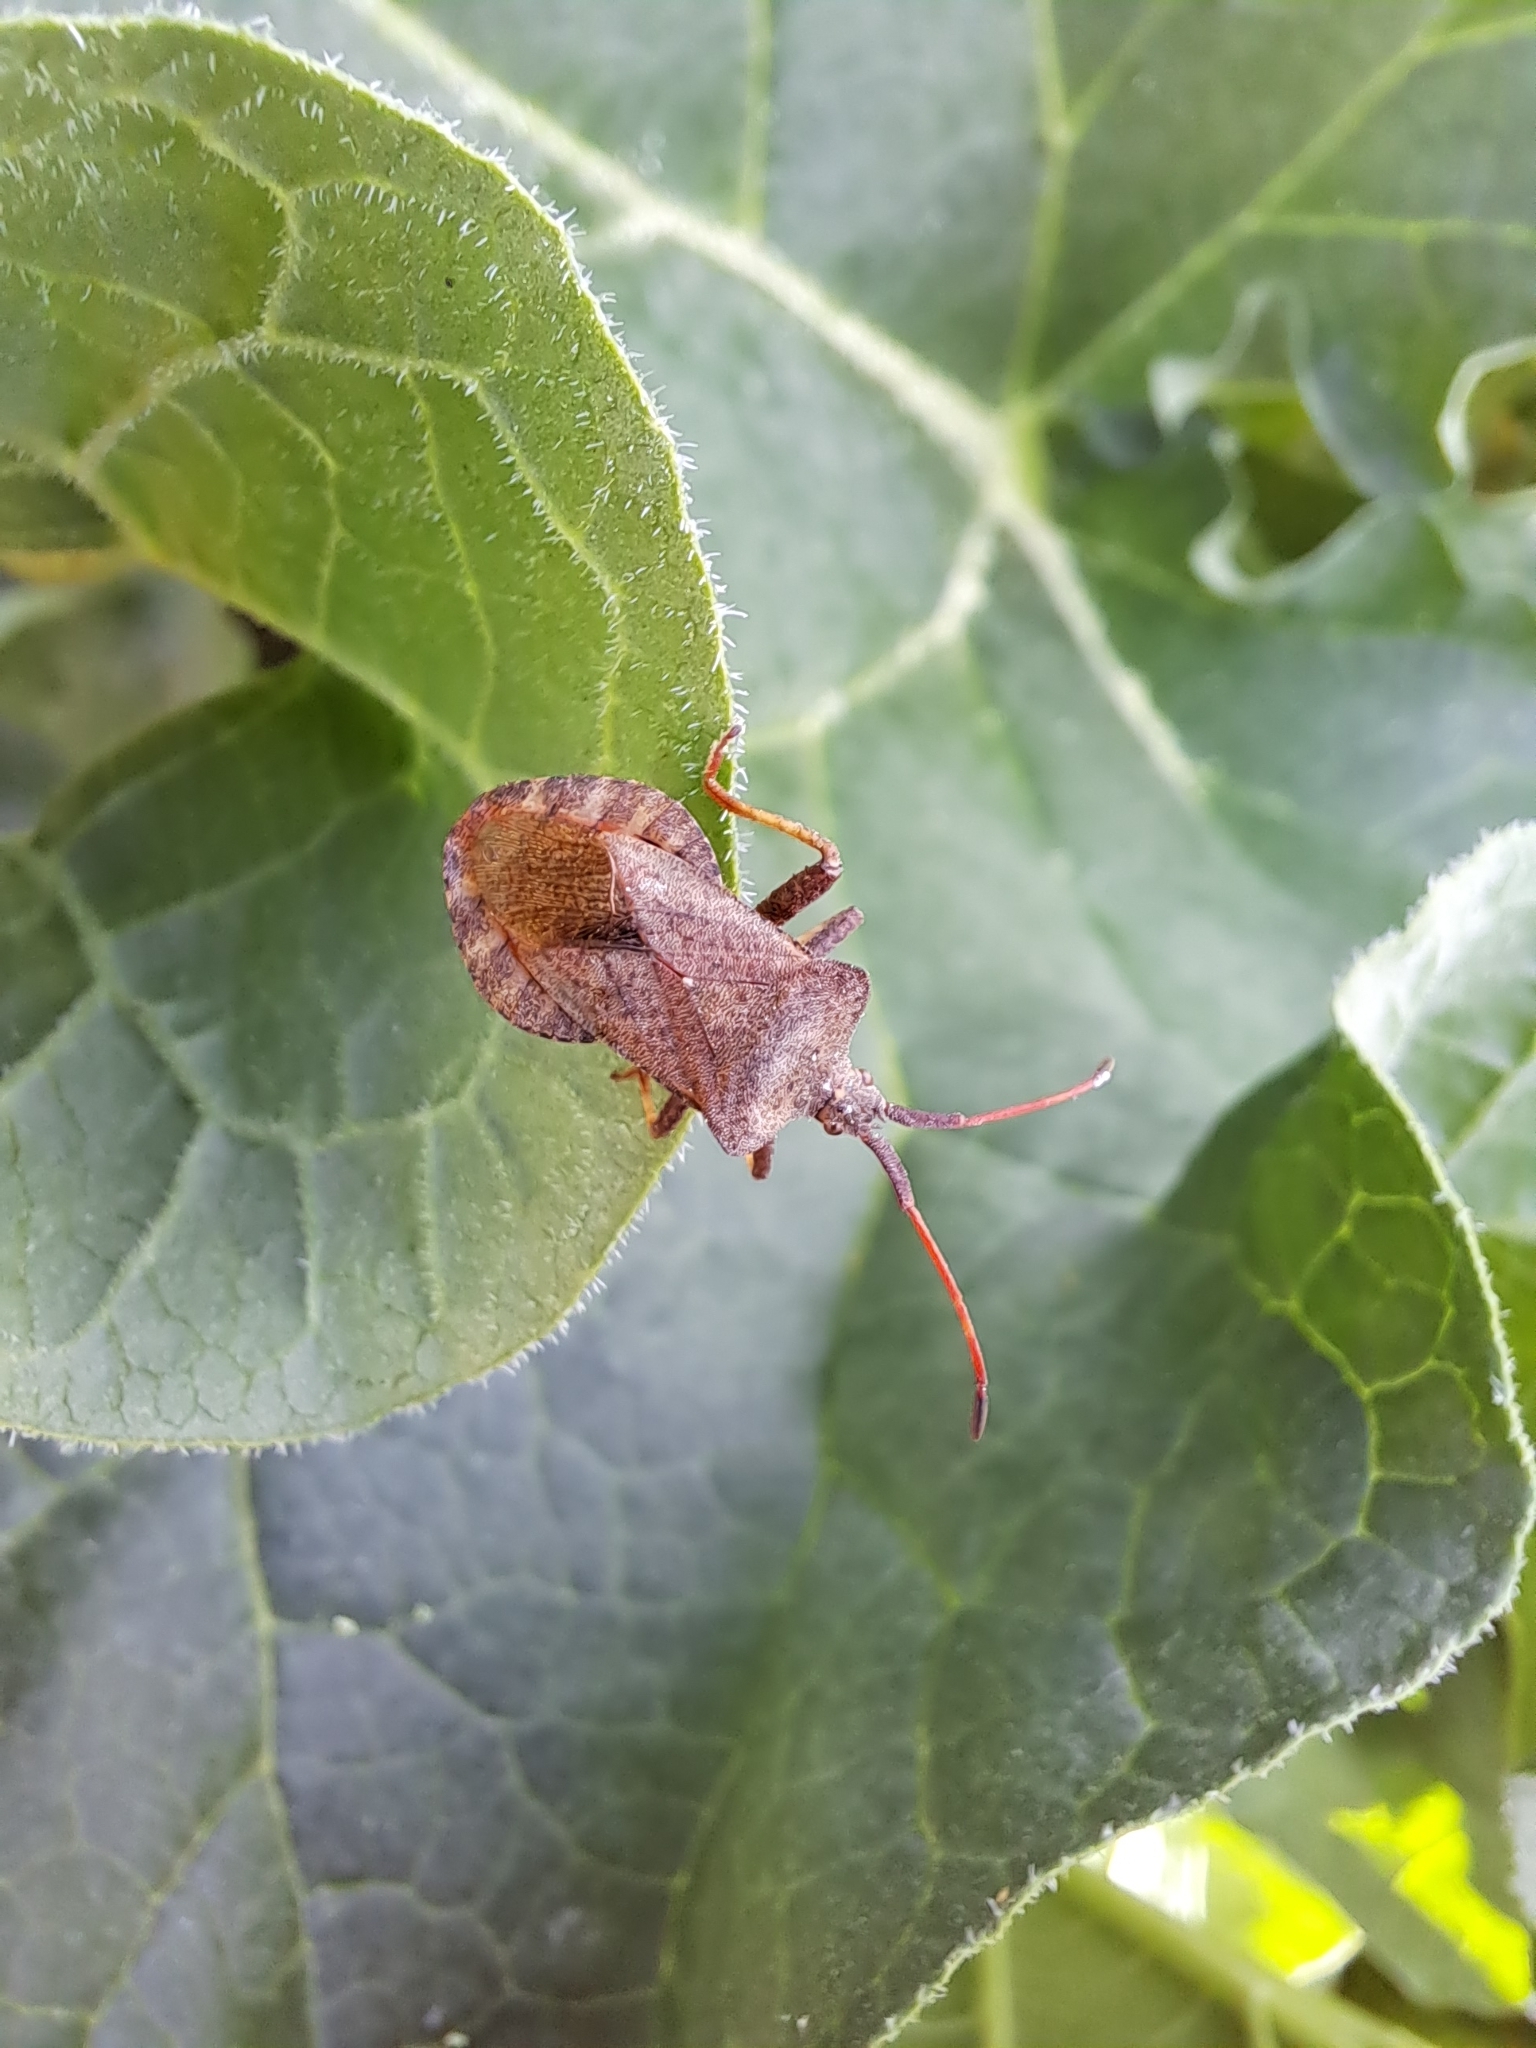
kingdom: Animalia
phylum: Arthropoda
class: Insecta
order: Hemiptera
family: Coreidae
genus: Coreus
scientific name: Coreus marginatus
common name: Dock bug
